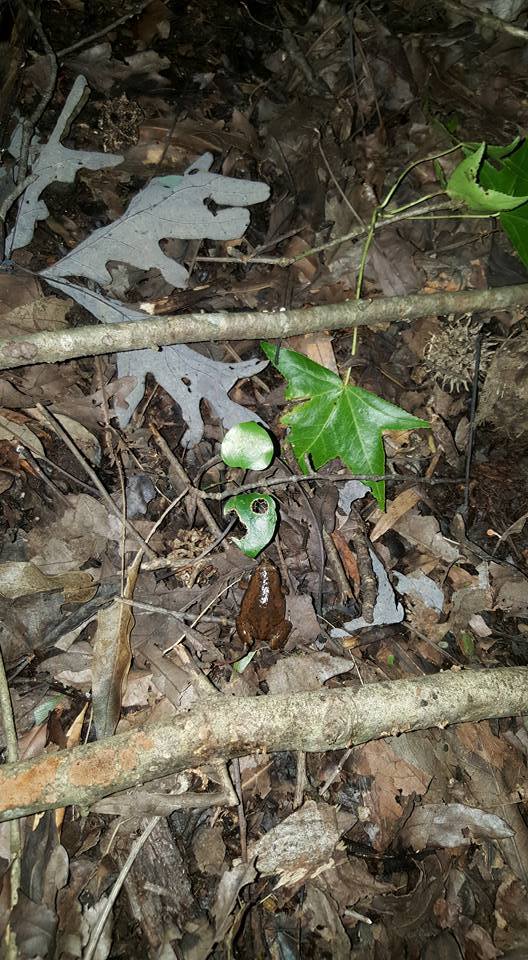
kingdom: Animalia
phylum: Chordata
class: Amphibia
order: Anura
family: Microhylidae
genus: Gastrophryne
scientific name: Gastrophryne carolinensis
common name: Eastern narrowmouth toad
